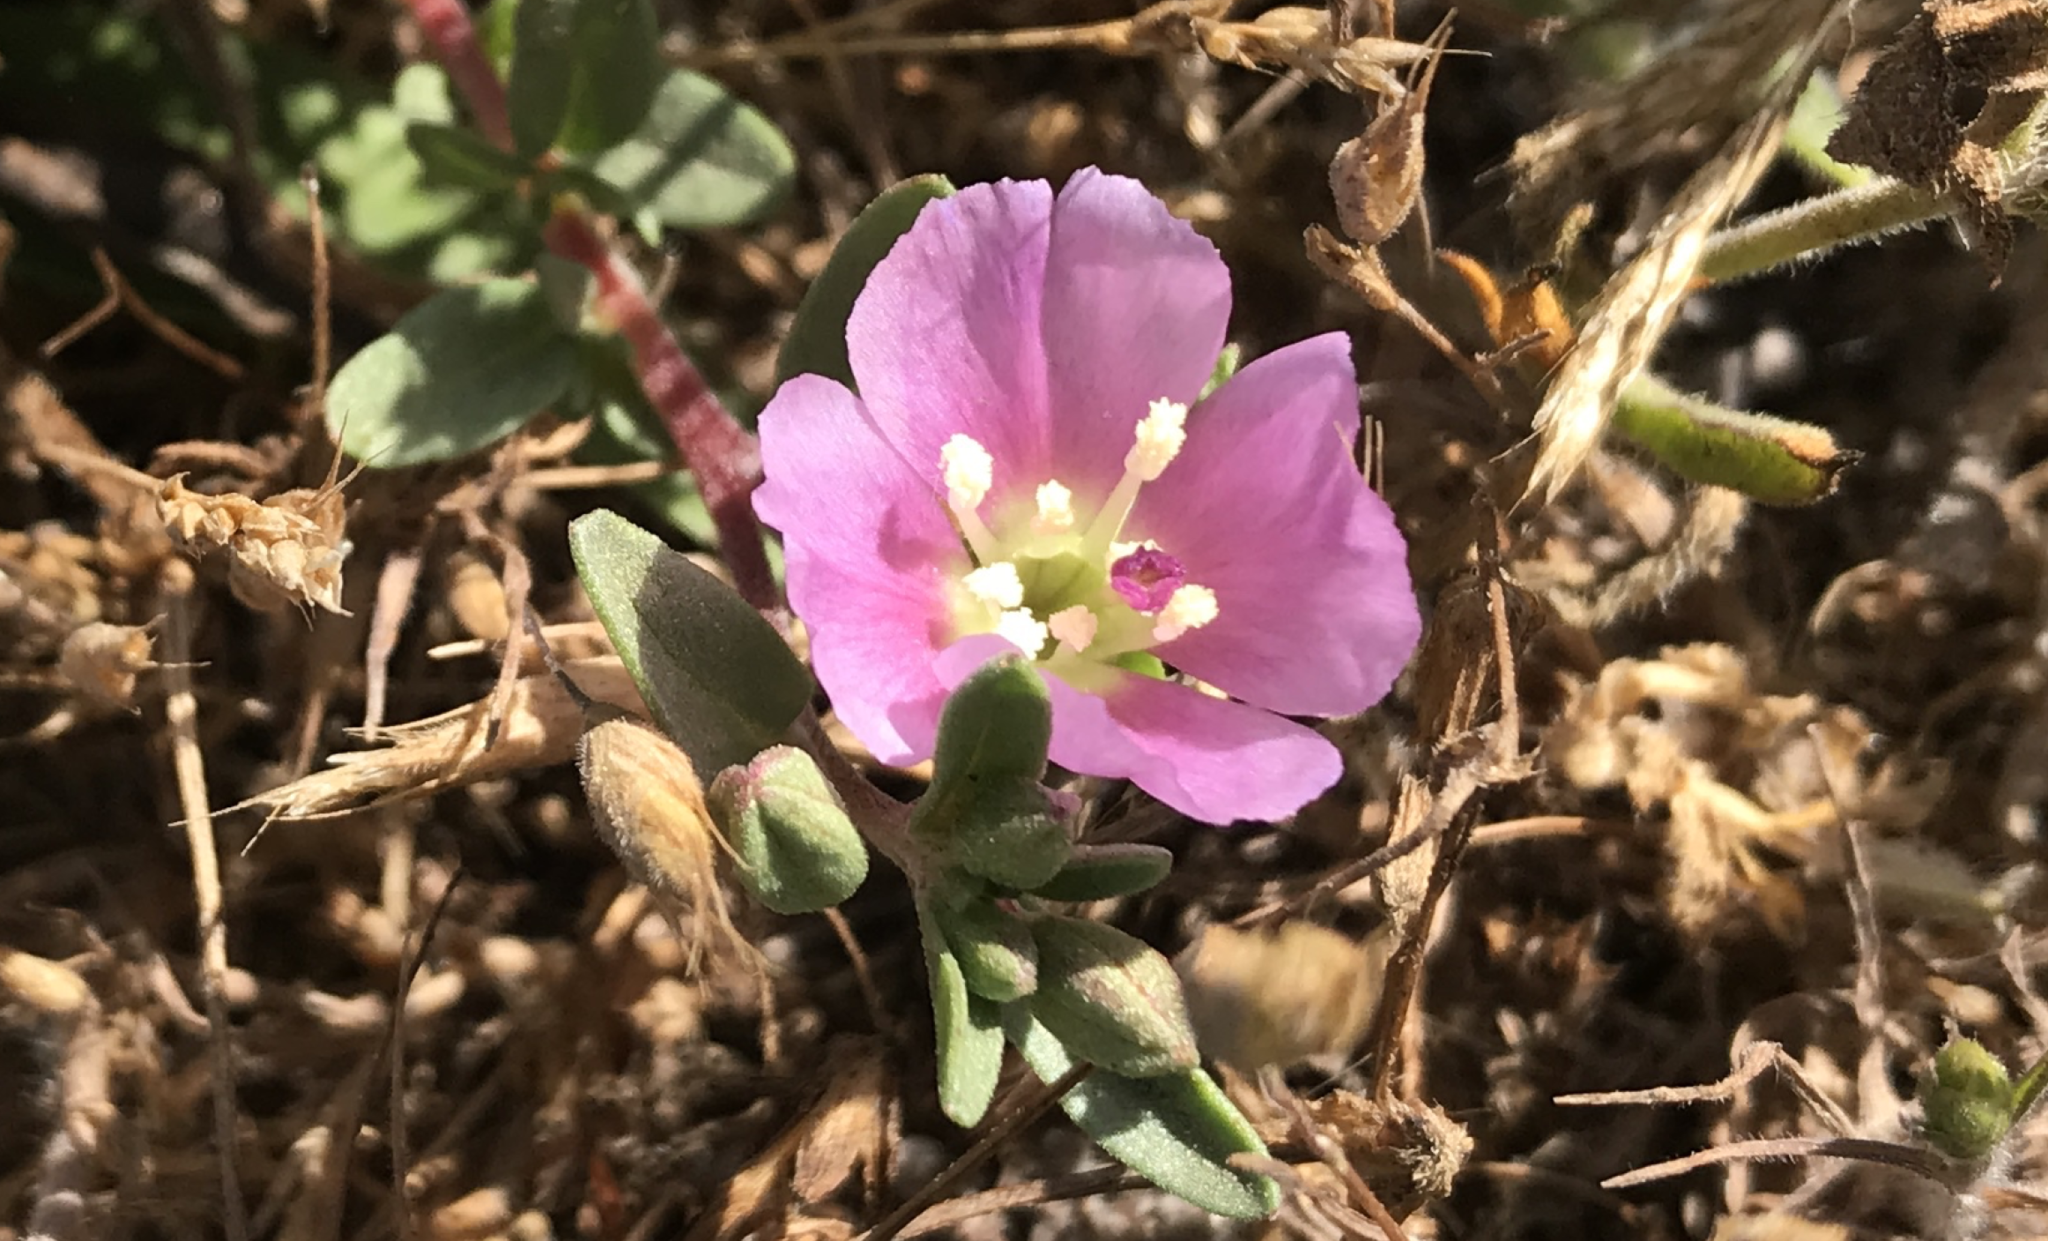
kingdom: Plantae
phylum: Tracheophyta
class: Magnoliopsida
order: Myrtales
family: Onagraceae
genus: Clarkia
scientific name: Clarkia davyi
